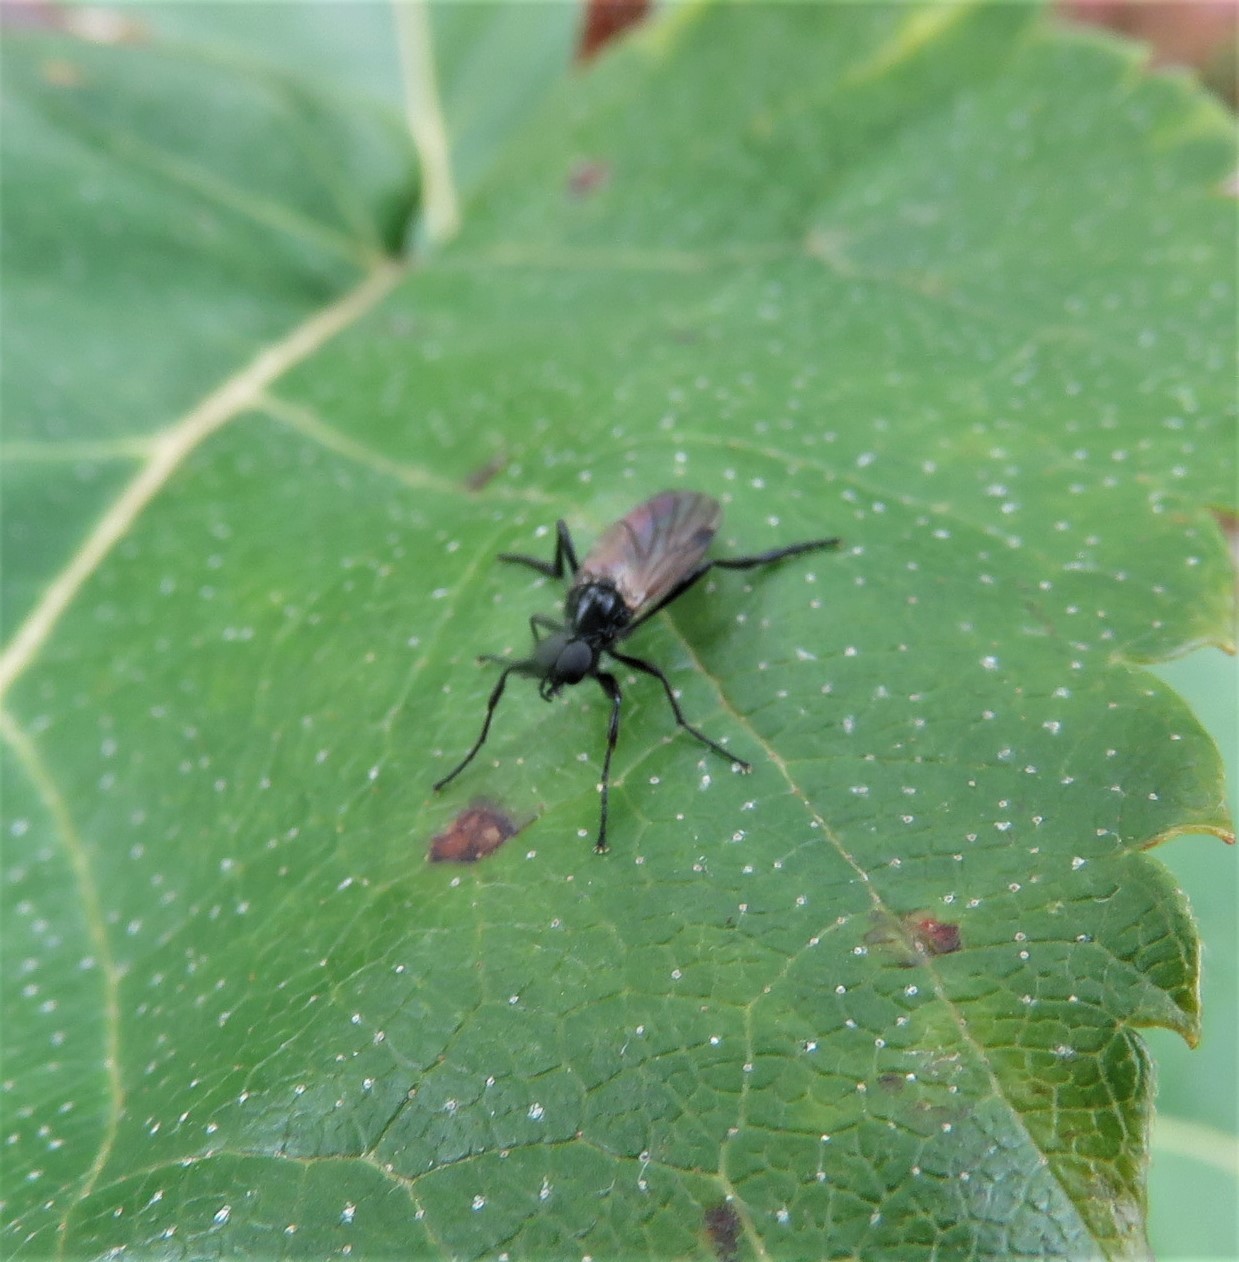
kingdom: Animalia
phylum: Arthropoda
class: Insecta
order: Diptera
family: Bibionidae
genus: Bibio
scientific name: Bibio slossonae
